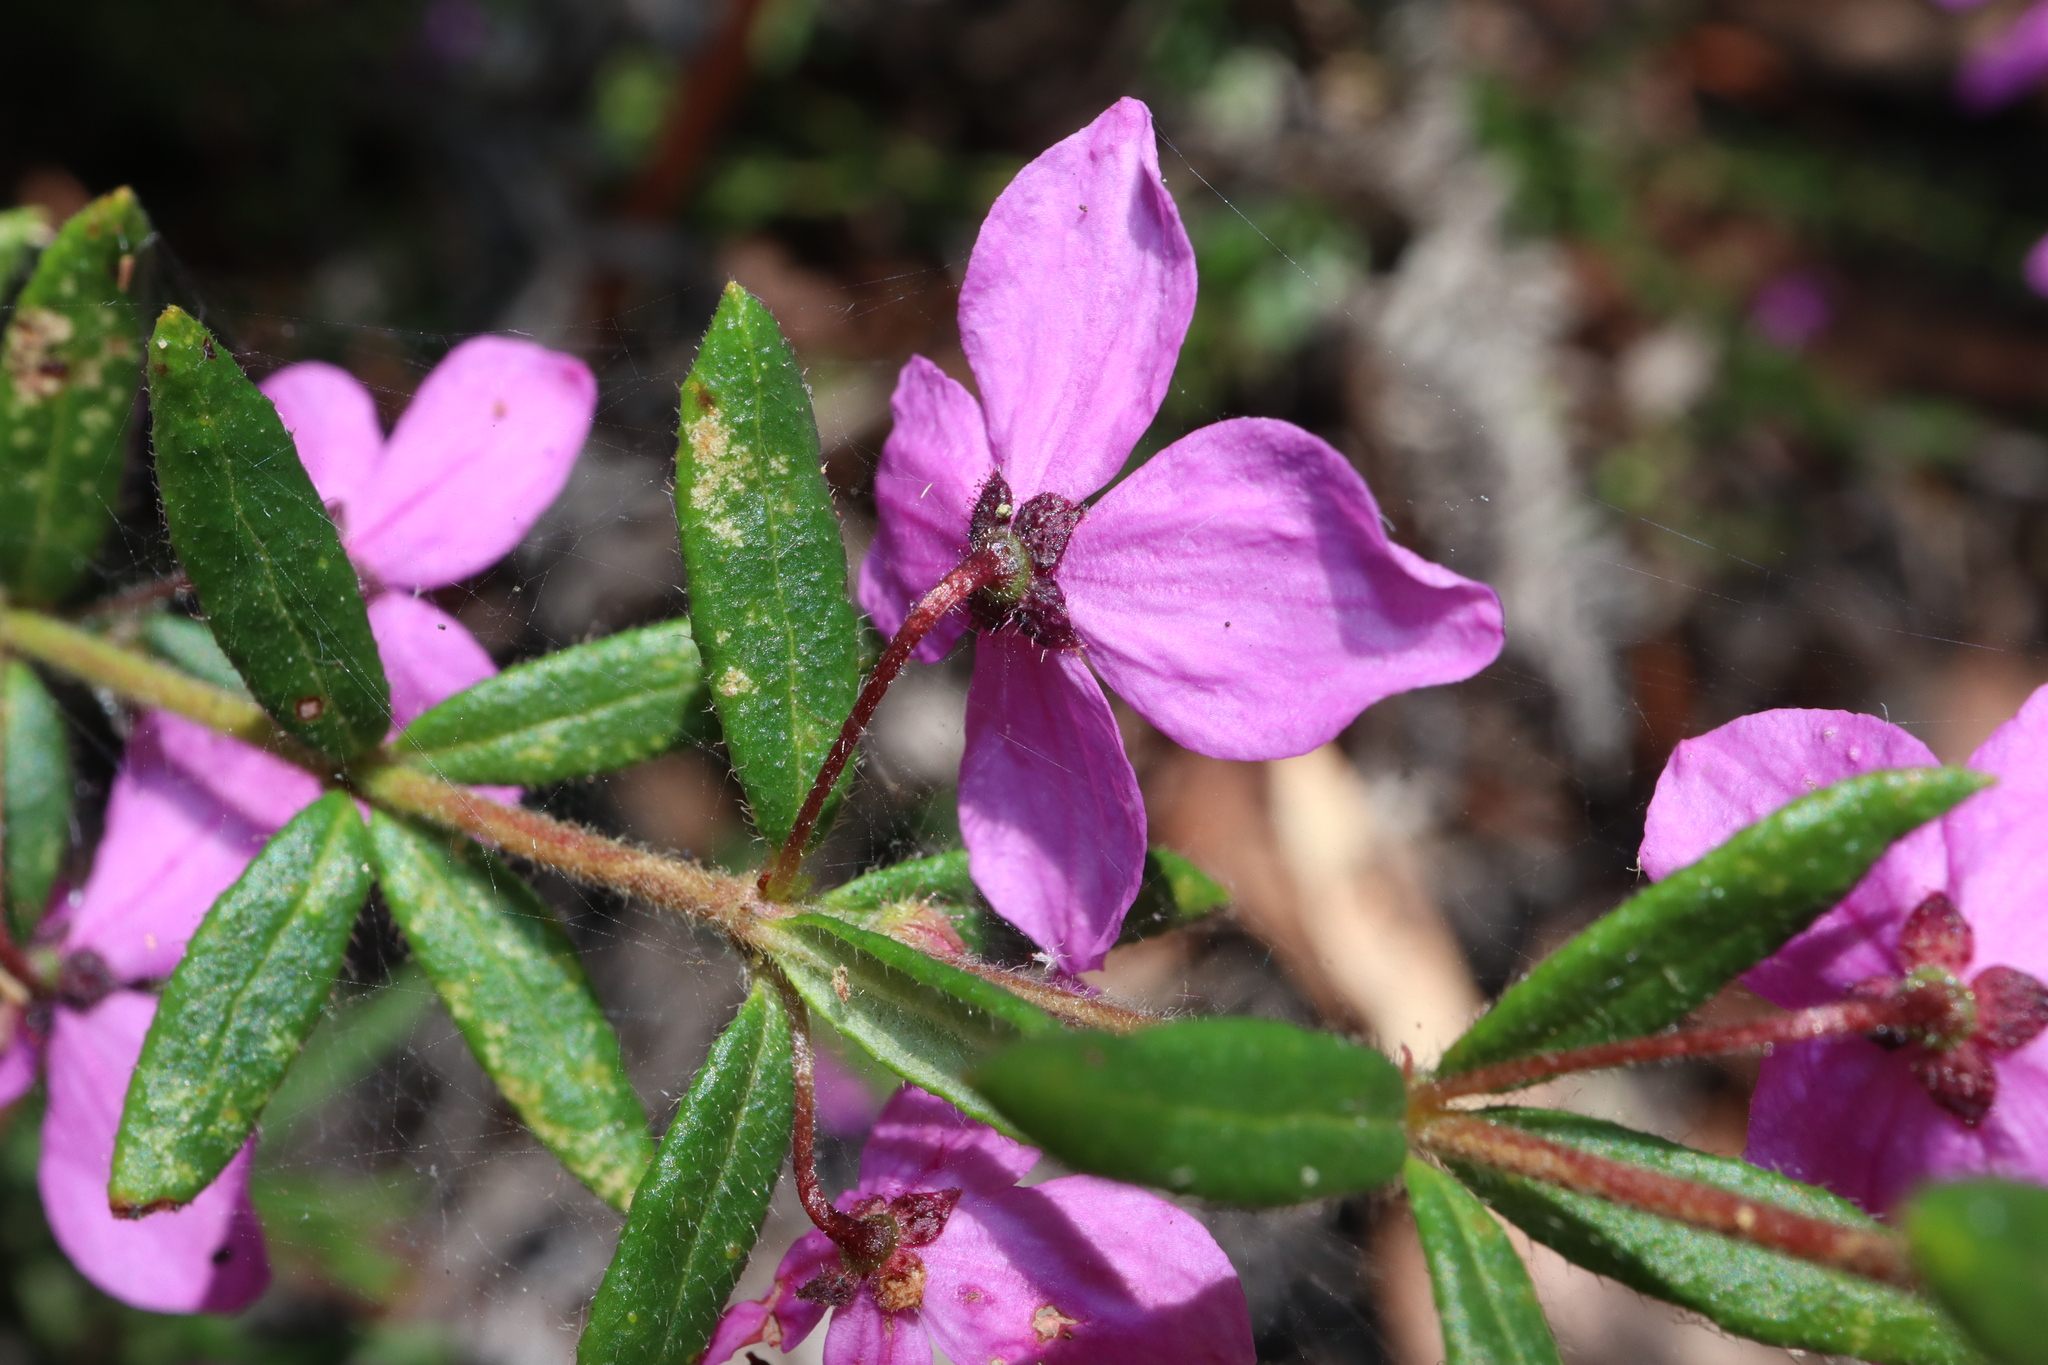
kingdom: Plantae
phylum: Tracheophyta
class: Magnoliopsida
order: Oxalidales
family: Elaeocarpaceae
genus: Tetratheca
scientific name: Tetratheca thymifolia
